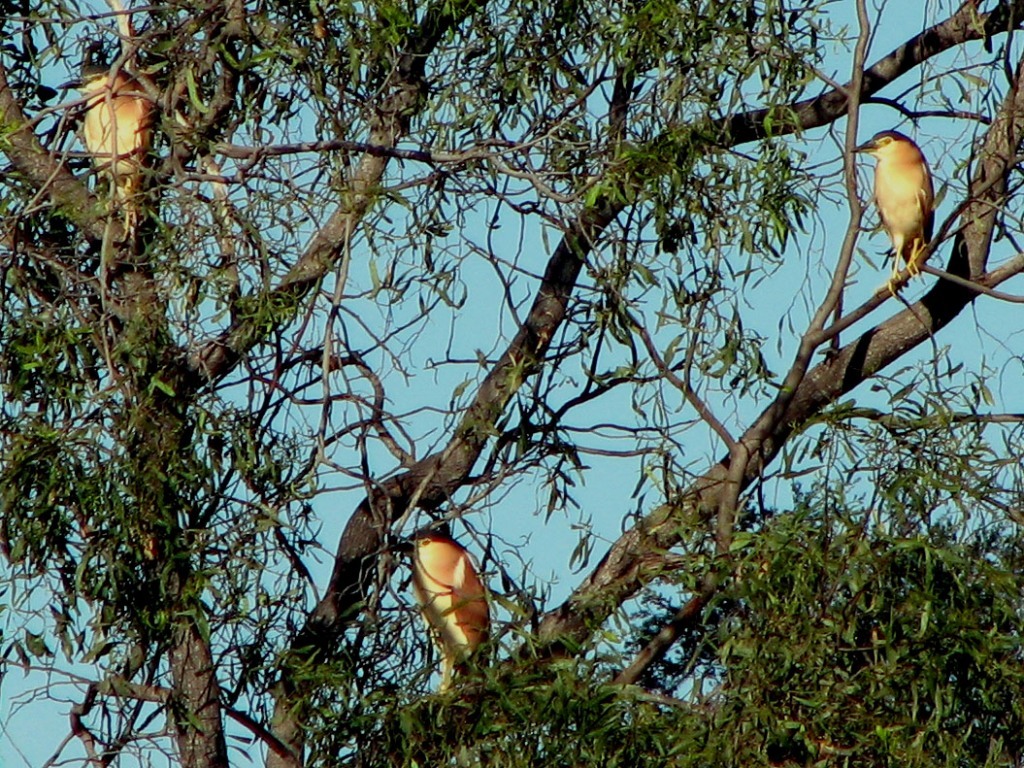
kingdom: Animalia
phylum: Chordata
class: Aves
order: Pelecaniformes
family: Ardeidae
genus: Nycticorax
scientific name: Nycticorax caledonicus
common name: Rufous night-heron
